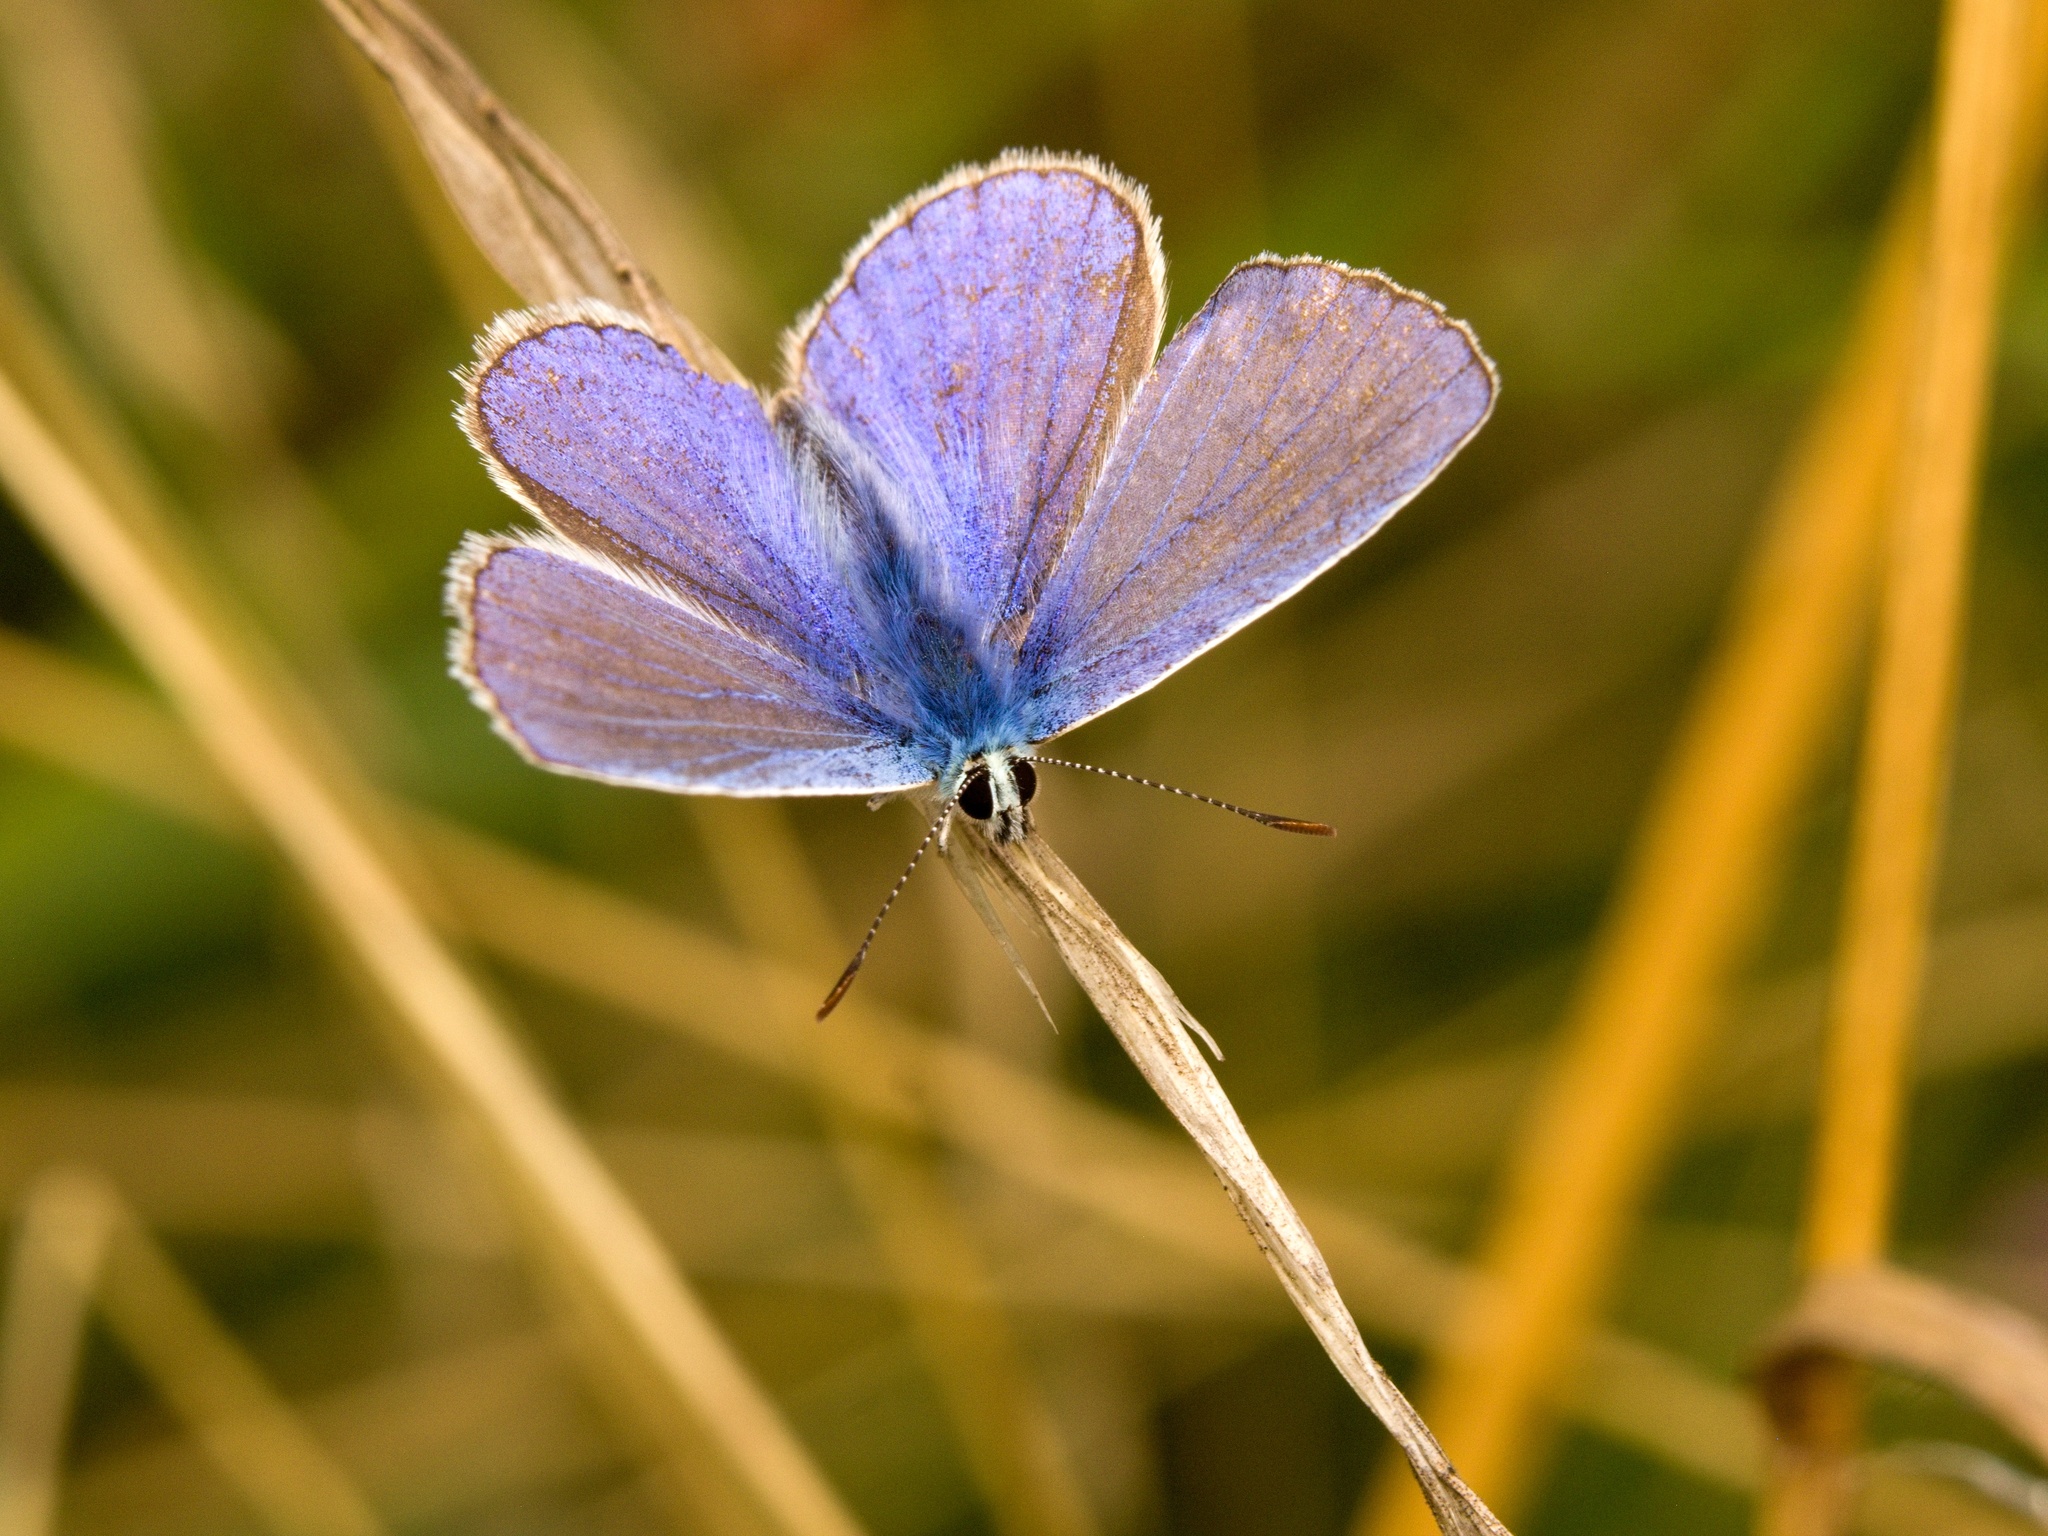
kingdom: Animalia
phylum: Arthropoda
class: Insecta
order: Lepidoptera
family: Lycaenidae
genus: Polyommatus
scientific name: Polyommatus icarus
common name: Common blue
